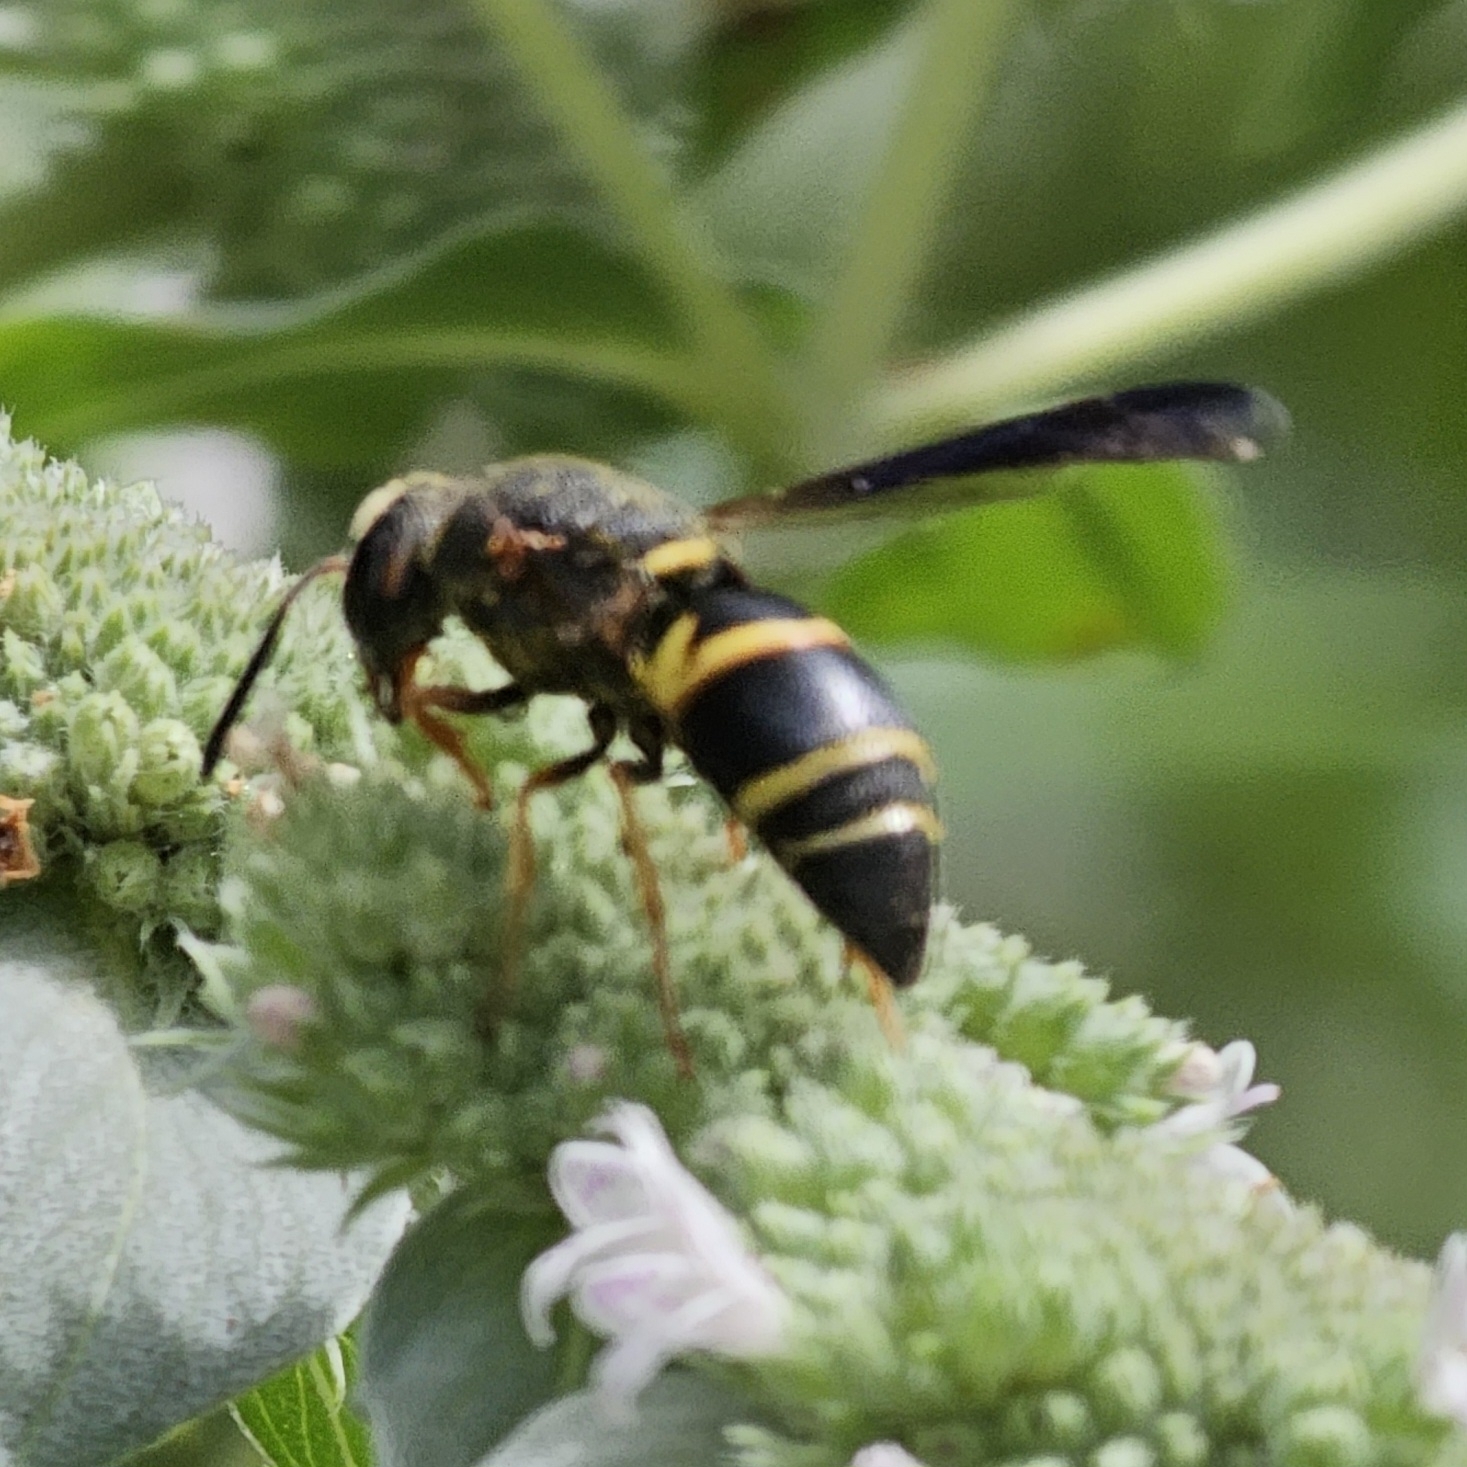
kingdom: Animalia
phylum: Arthropoda
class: Insecta
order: Hymenoptera
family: Eumenidae
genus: Euodynerus
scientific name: Euodynerus hidalgo
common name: Wasp
